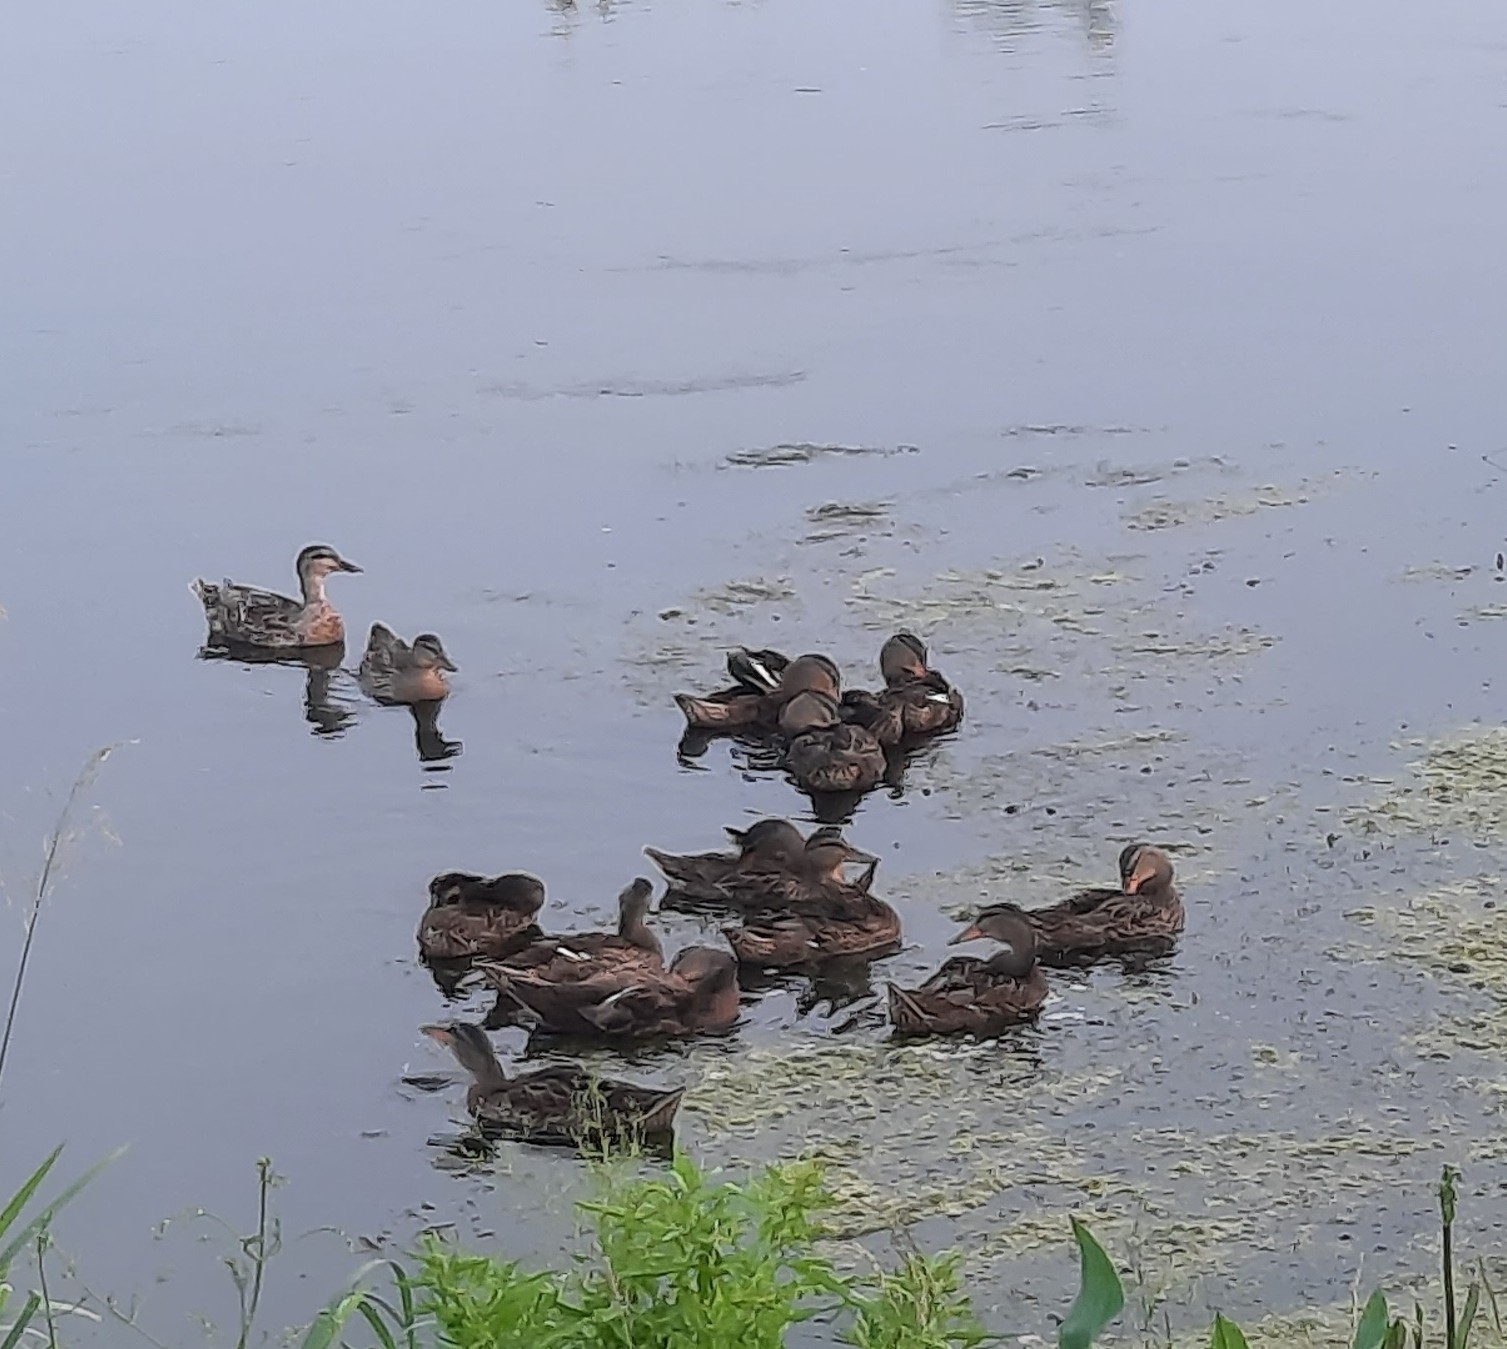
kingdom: Animalia
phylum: Chordata
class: Aves
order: Anseriformes
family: Anatidae
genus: Anas
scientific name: Anas platyrhynchos
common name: Mallard
